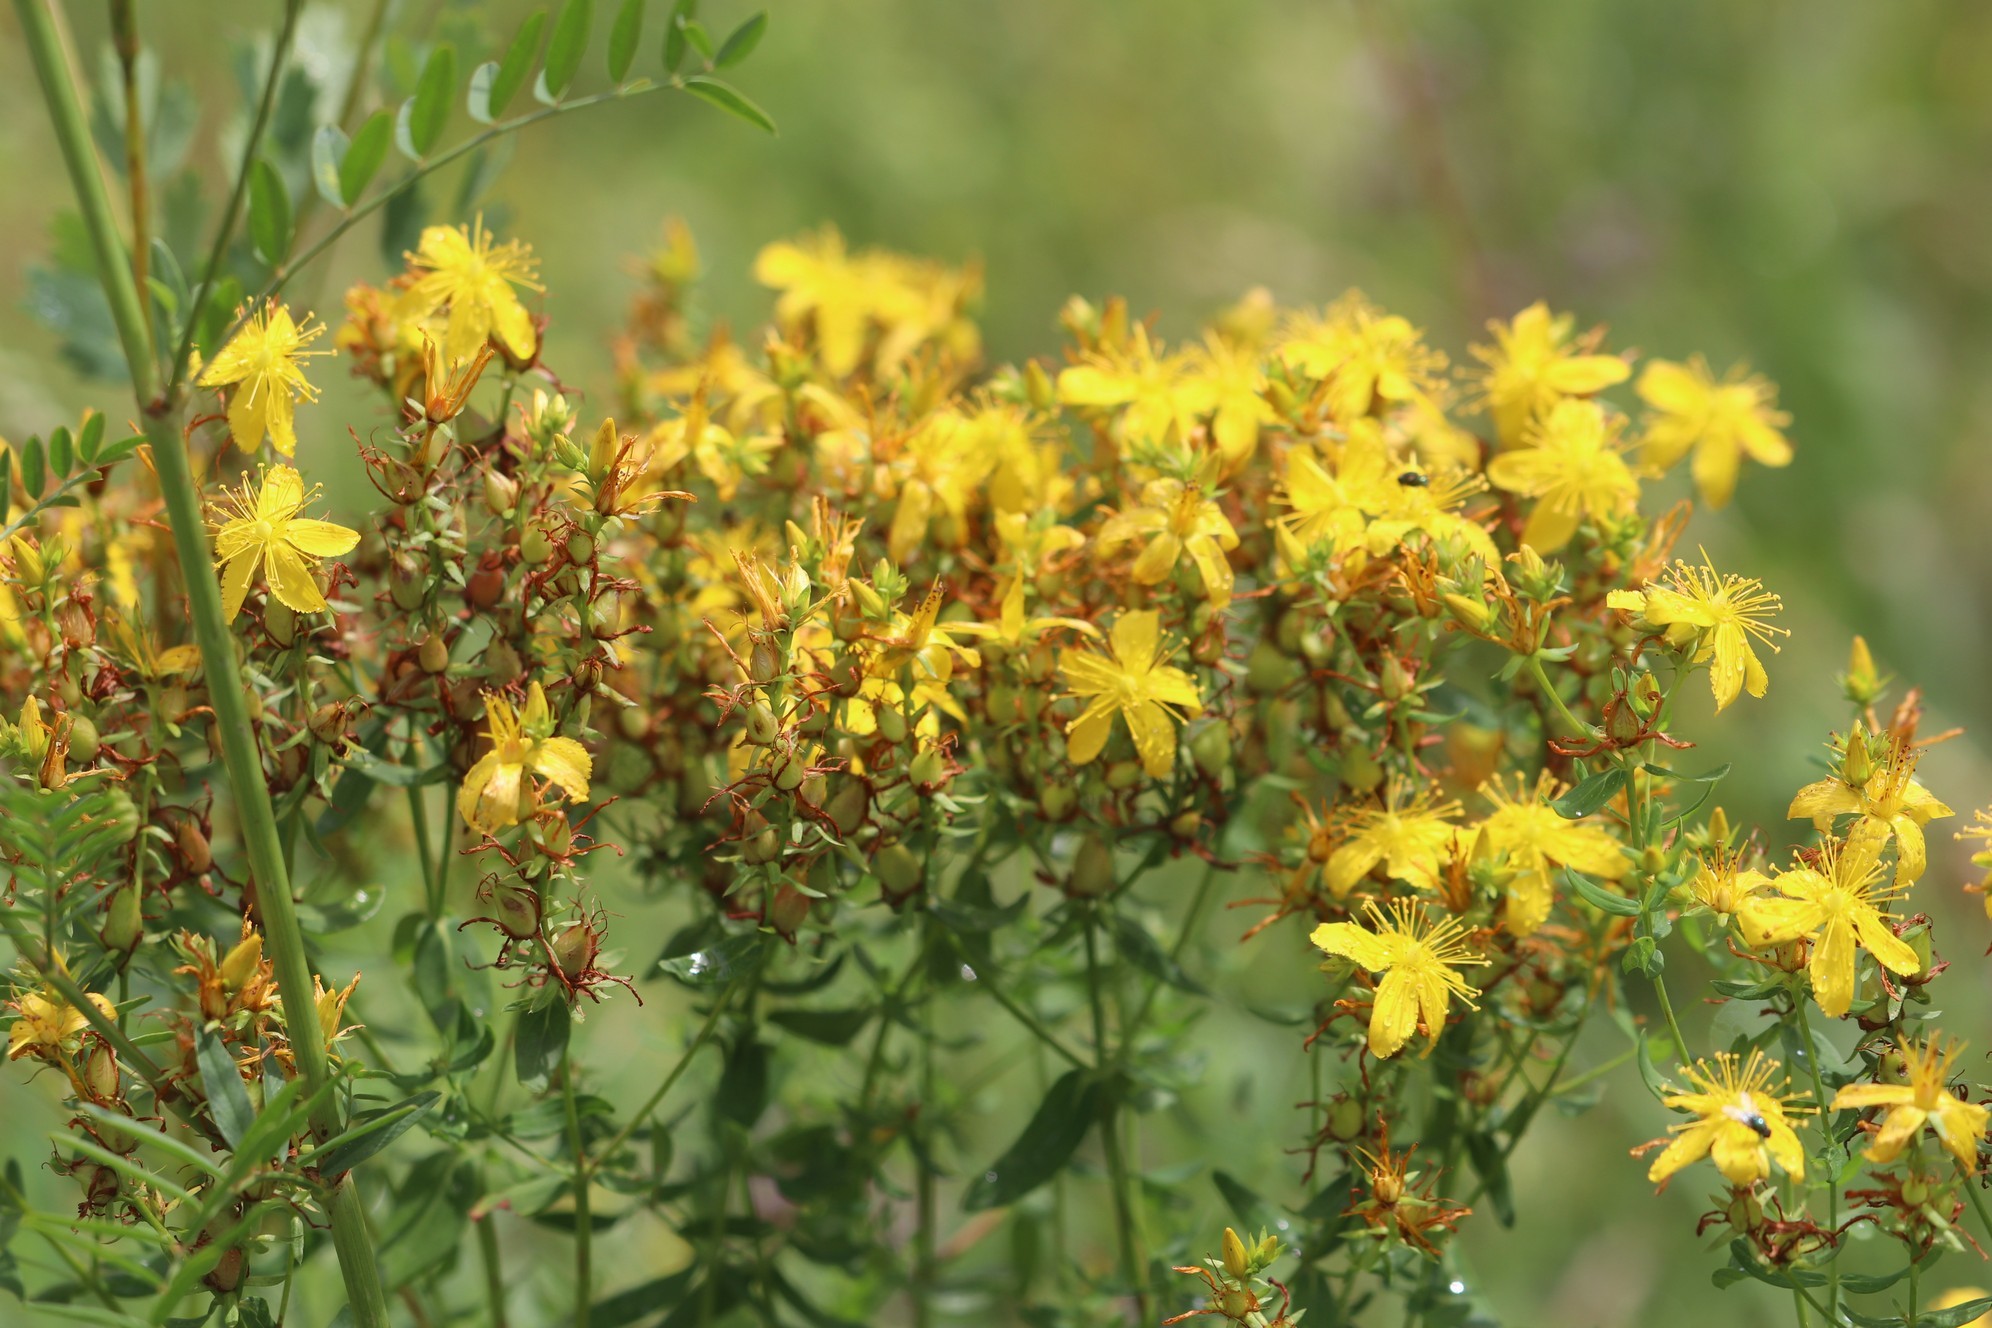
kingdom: Plantae
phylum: Tracheophyta
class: Magnoliopsida
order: Malpighiales
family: Hypericaceae
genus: Hypericum
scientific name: Hypericum perforatum
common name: Common st. johnswort
